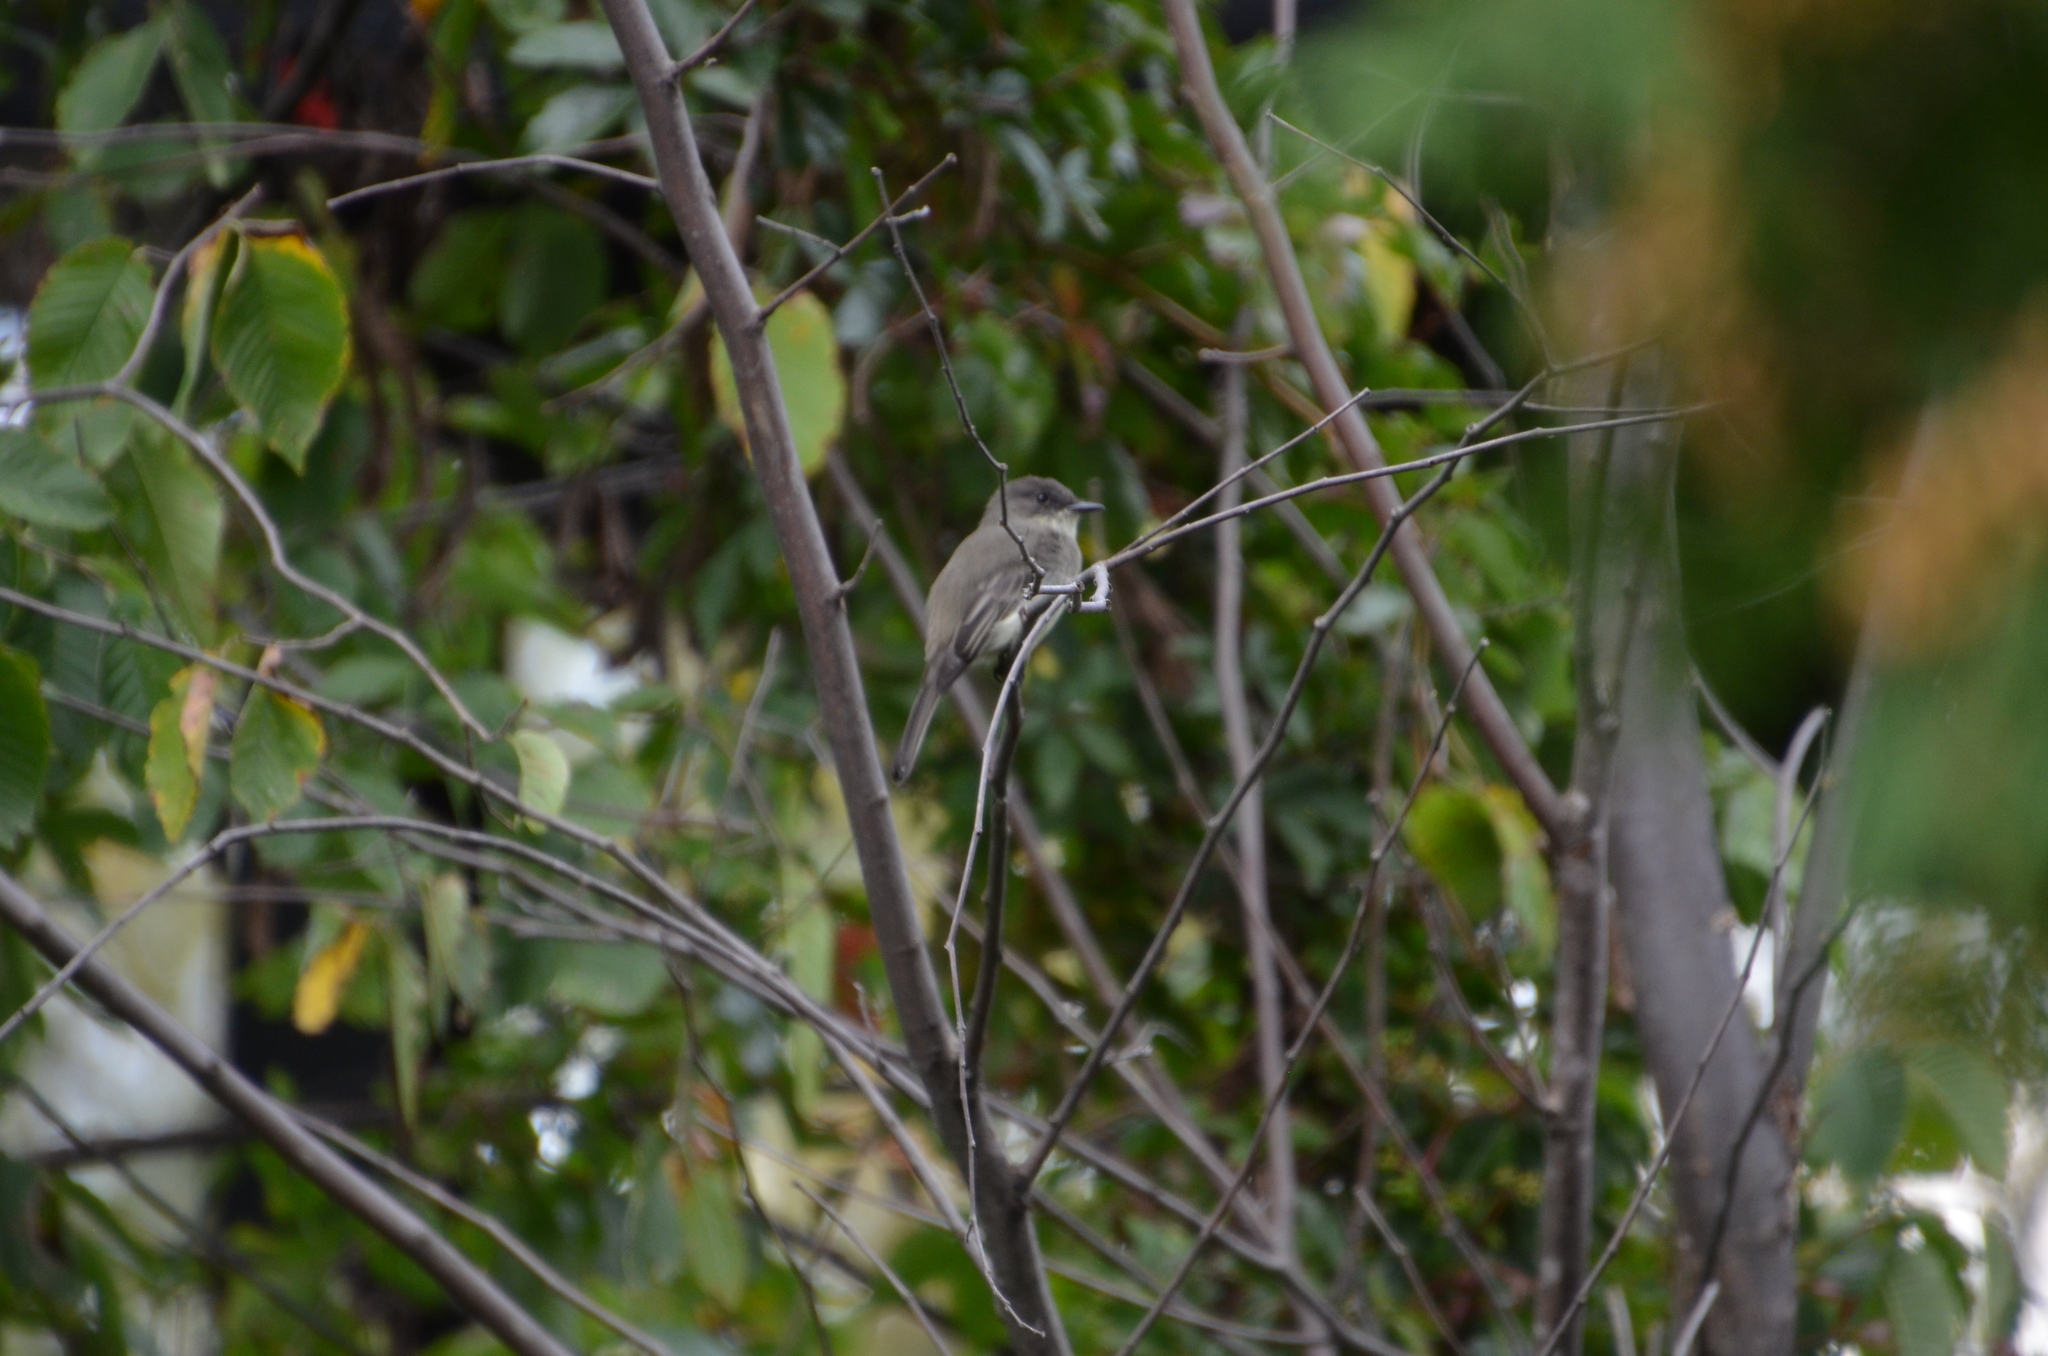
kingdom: Animalia
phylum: Chordata
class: Aves
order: Passeriformes
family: Tyrannidae
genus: Sayornis
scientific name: Sayornis phoebe
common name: Eastern phoebe
